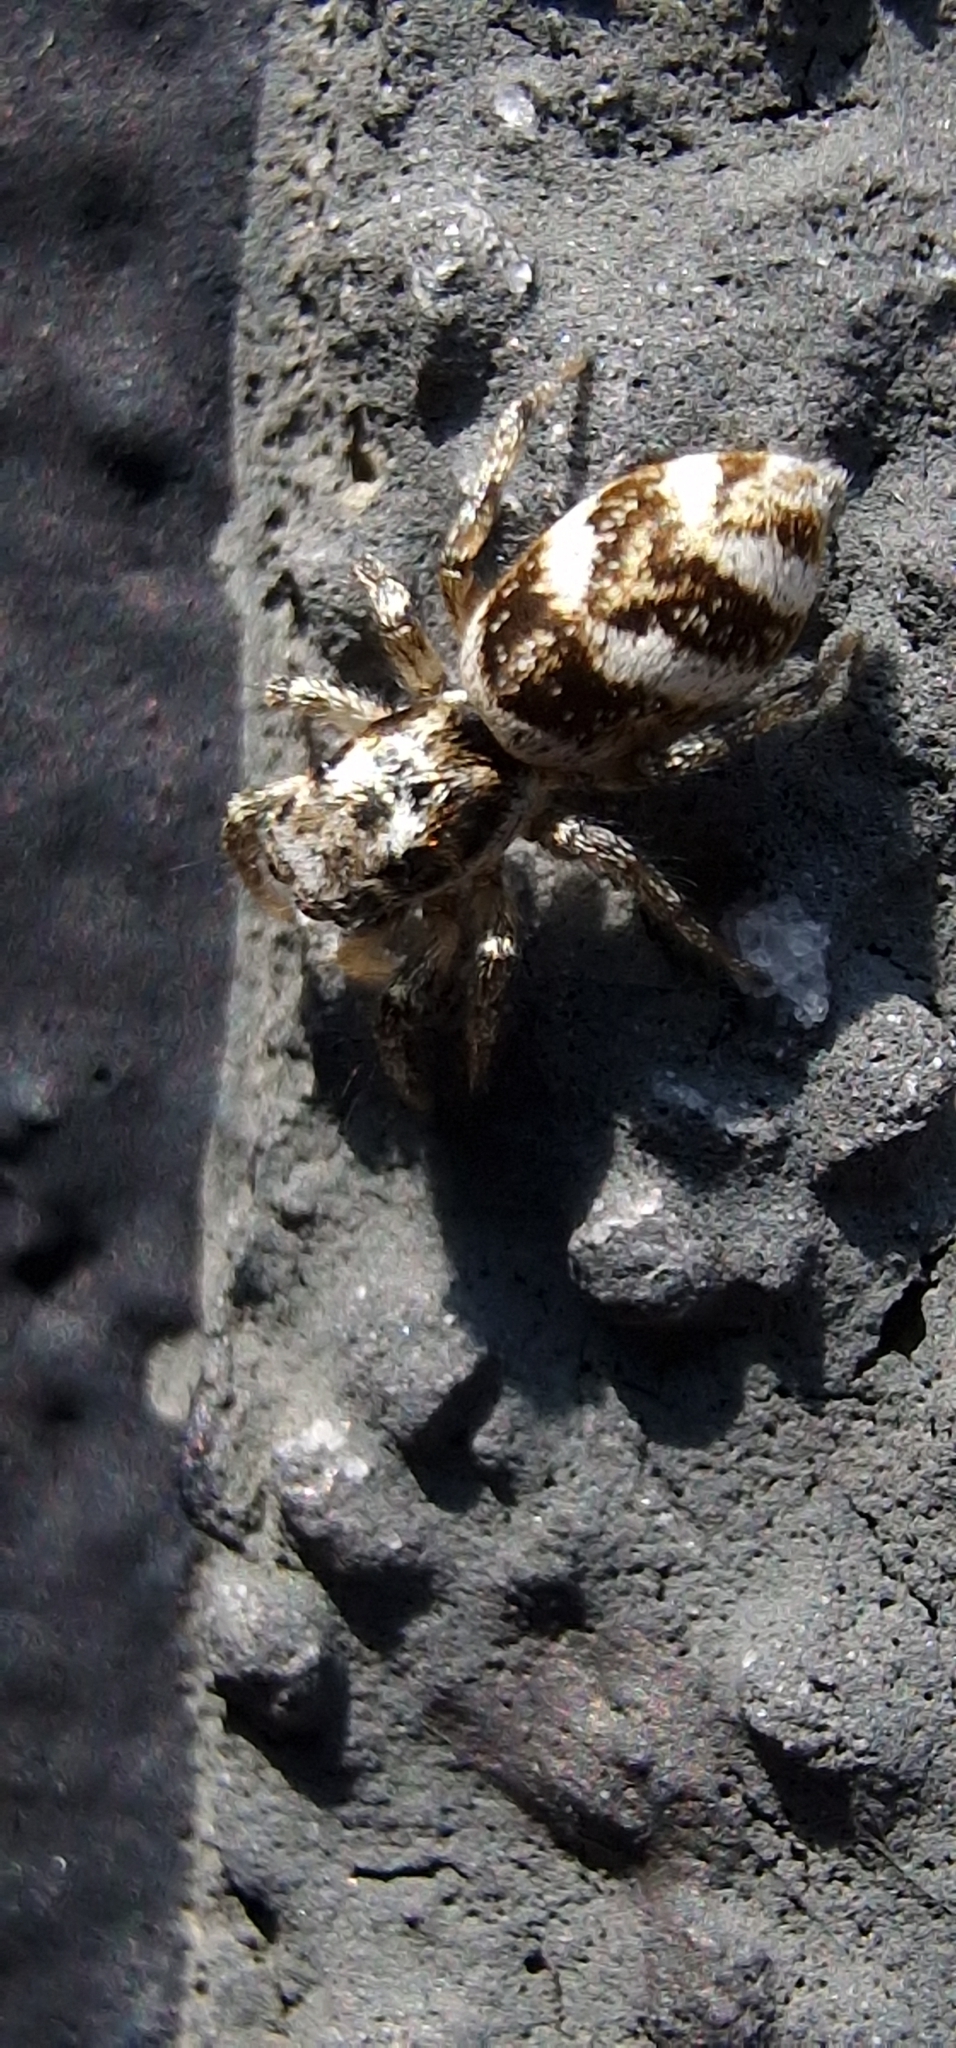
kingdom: Animalia
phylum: Arthropoda
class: Arachnida
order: Araneae
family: Salticidae
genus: Salticus
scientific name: Salticus scenicus
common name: Zebra jumper
